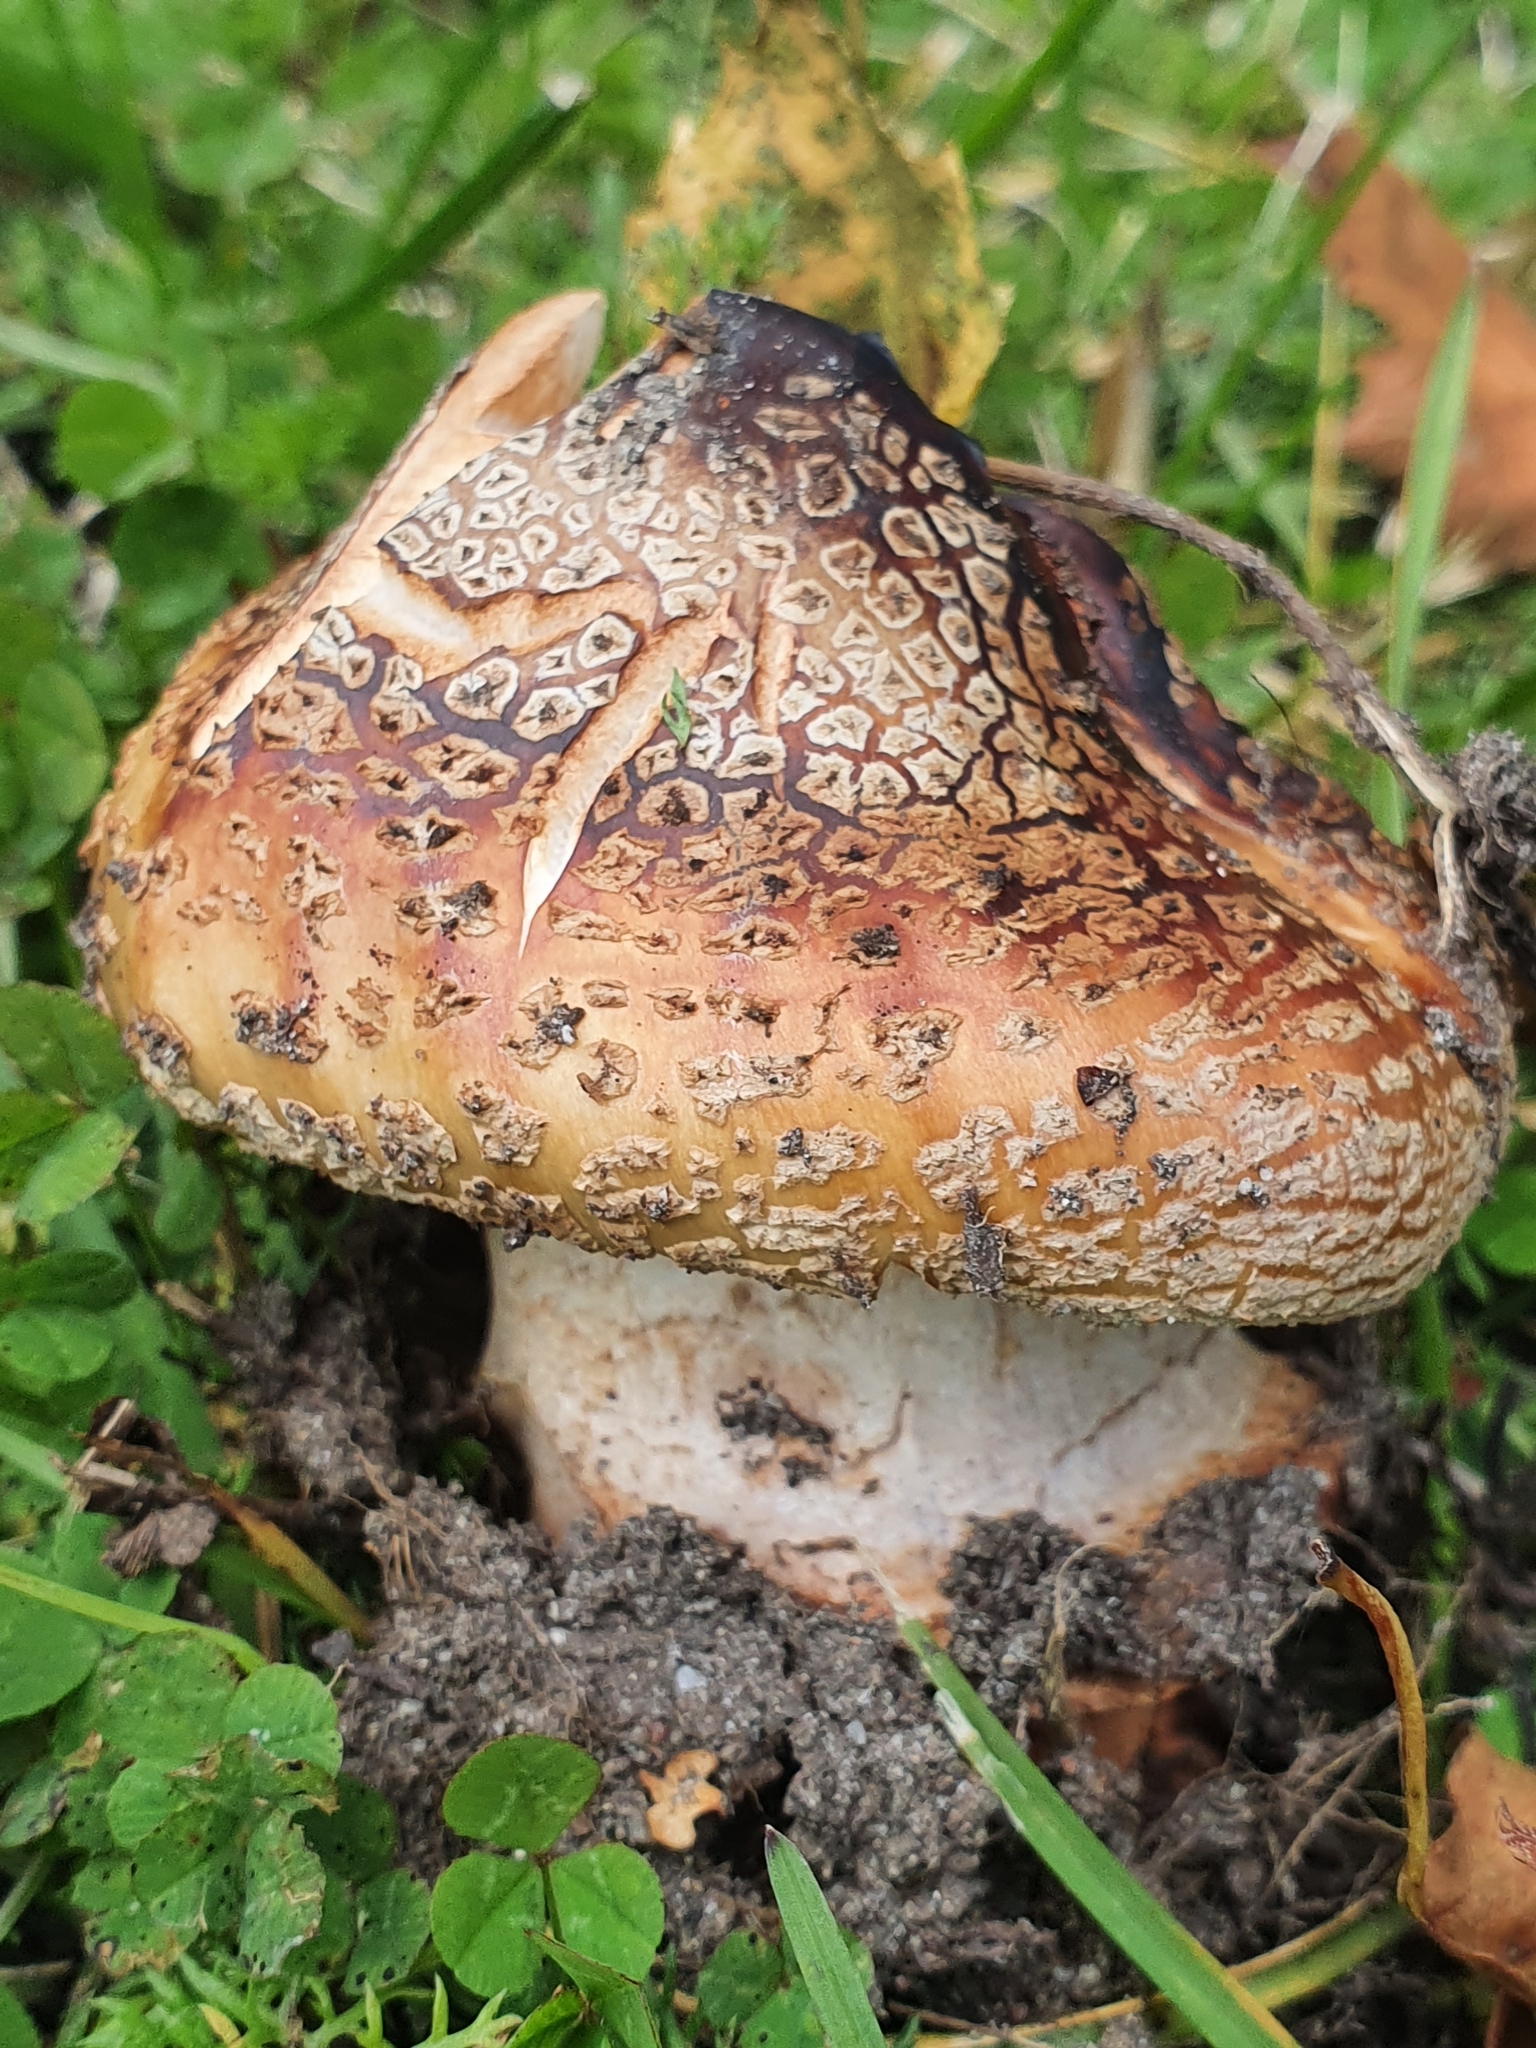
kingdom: Fungi
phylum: Basidiomycota
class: Agaricomycetes
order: Agaricales
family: Amanitaceae
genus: Amanita
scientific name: Amanita rubescens
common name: Blusher
